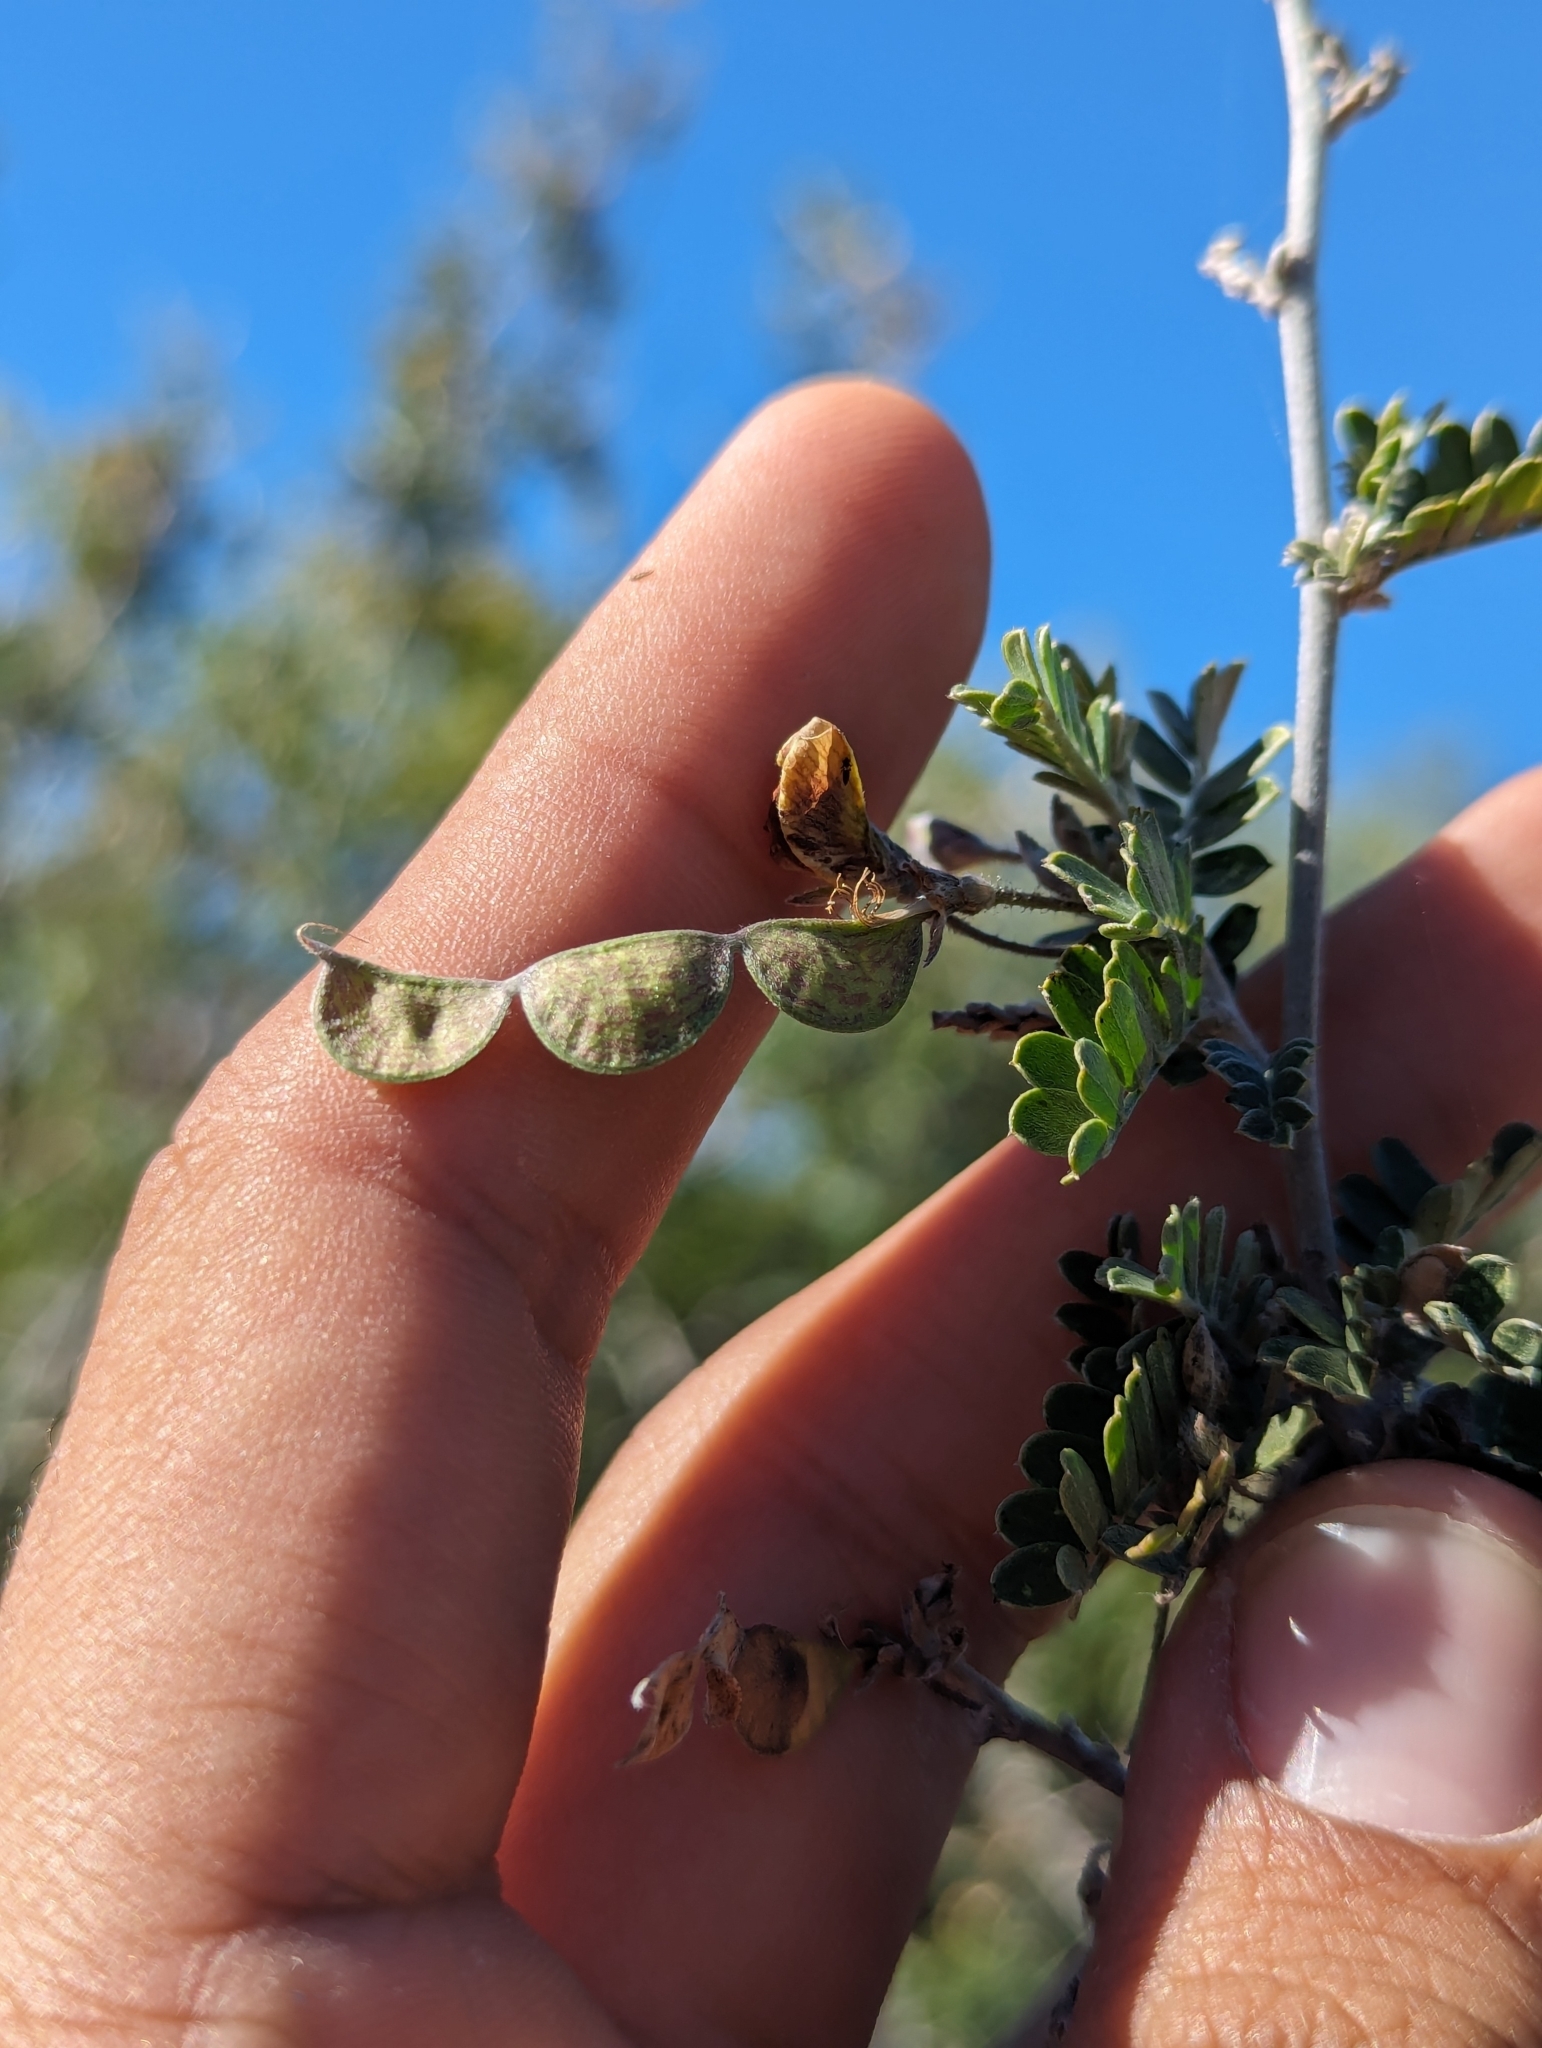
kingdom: Plantae
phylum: Tracheophyta
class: Magnoliopsida
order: Fabales
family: Fabaceae
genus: Ctenodon
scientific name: Ctenodon vigil
